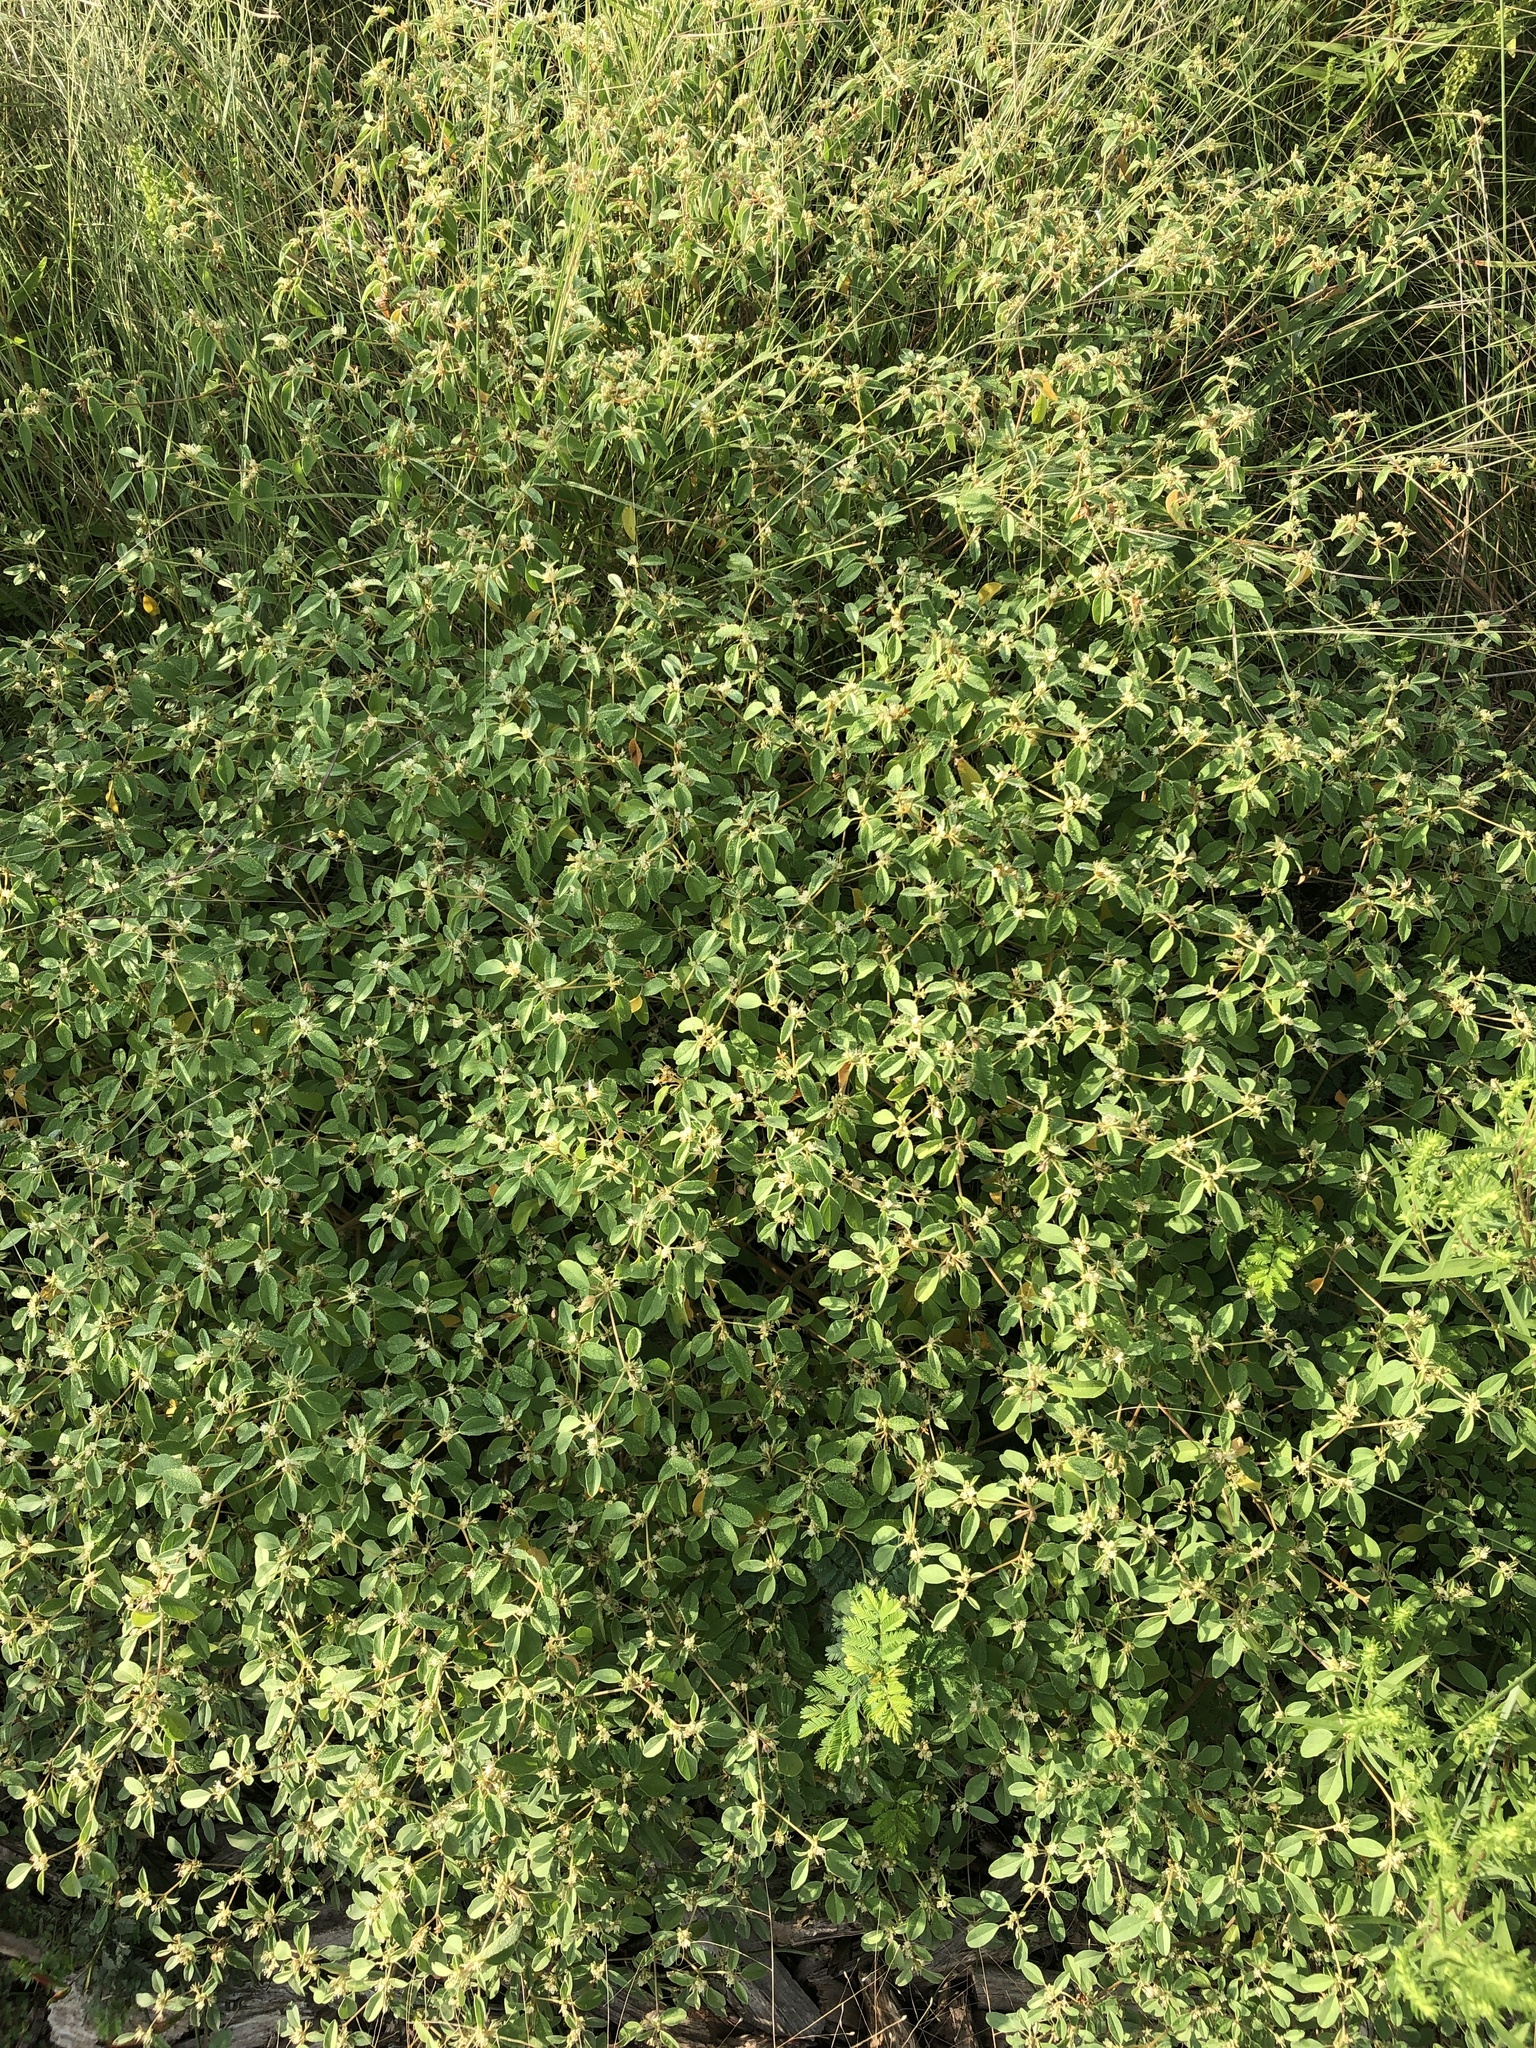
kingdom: Plantae
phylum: Tracheophyta
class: Magnoliopsida
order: Malpighiales
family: Euphorbiaceae
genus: Croton
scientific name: Croton monanthogynus
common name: One-seed croton
